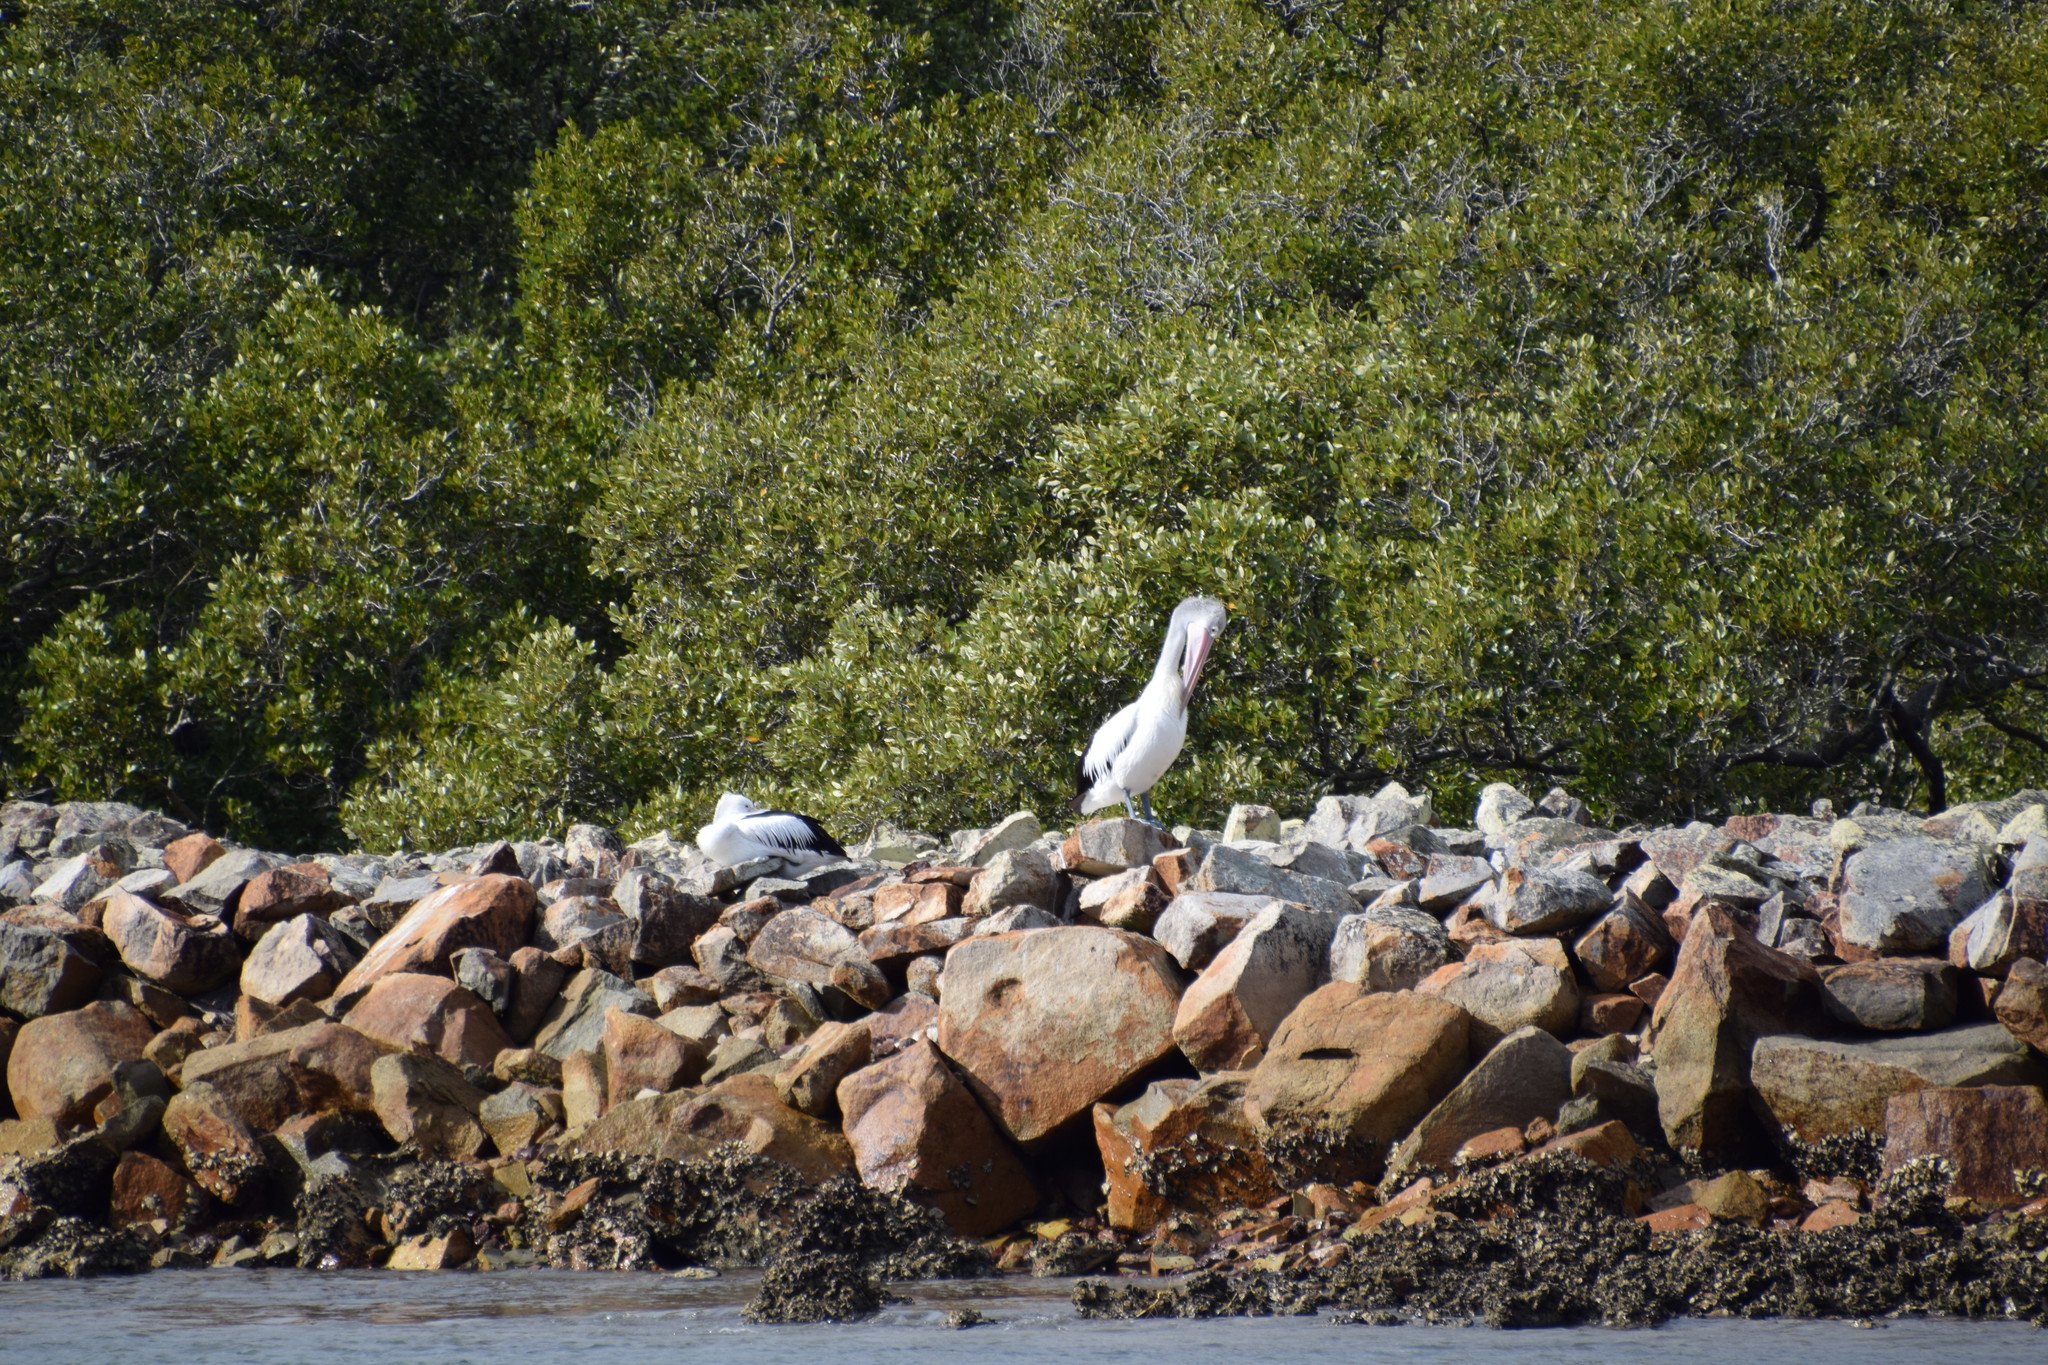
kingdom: Animalia
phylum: Chordata
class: Aves
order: Pelecaniformes
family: Pelecanidae
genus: Pelecanus
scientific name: Pelecanus conspicillatus
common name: Australian pelican
